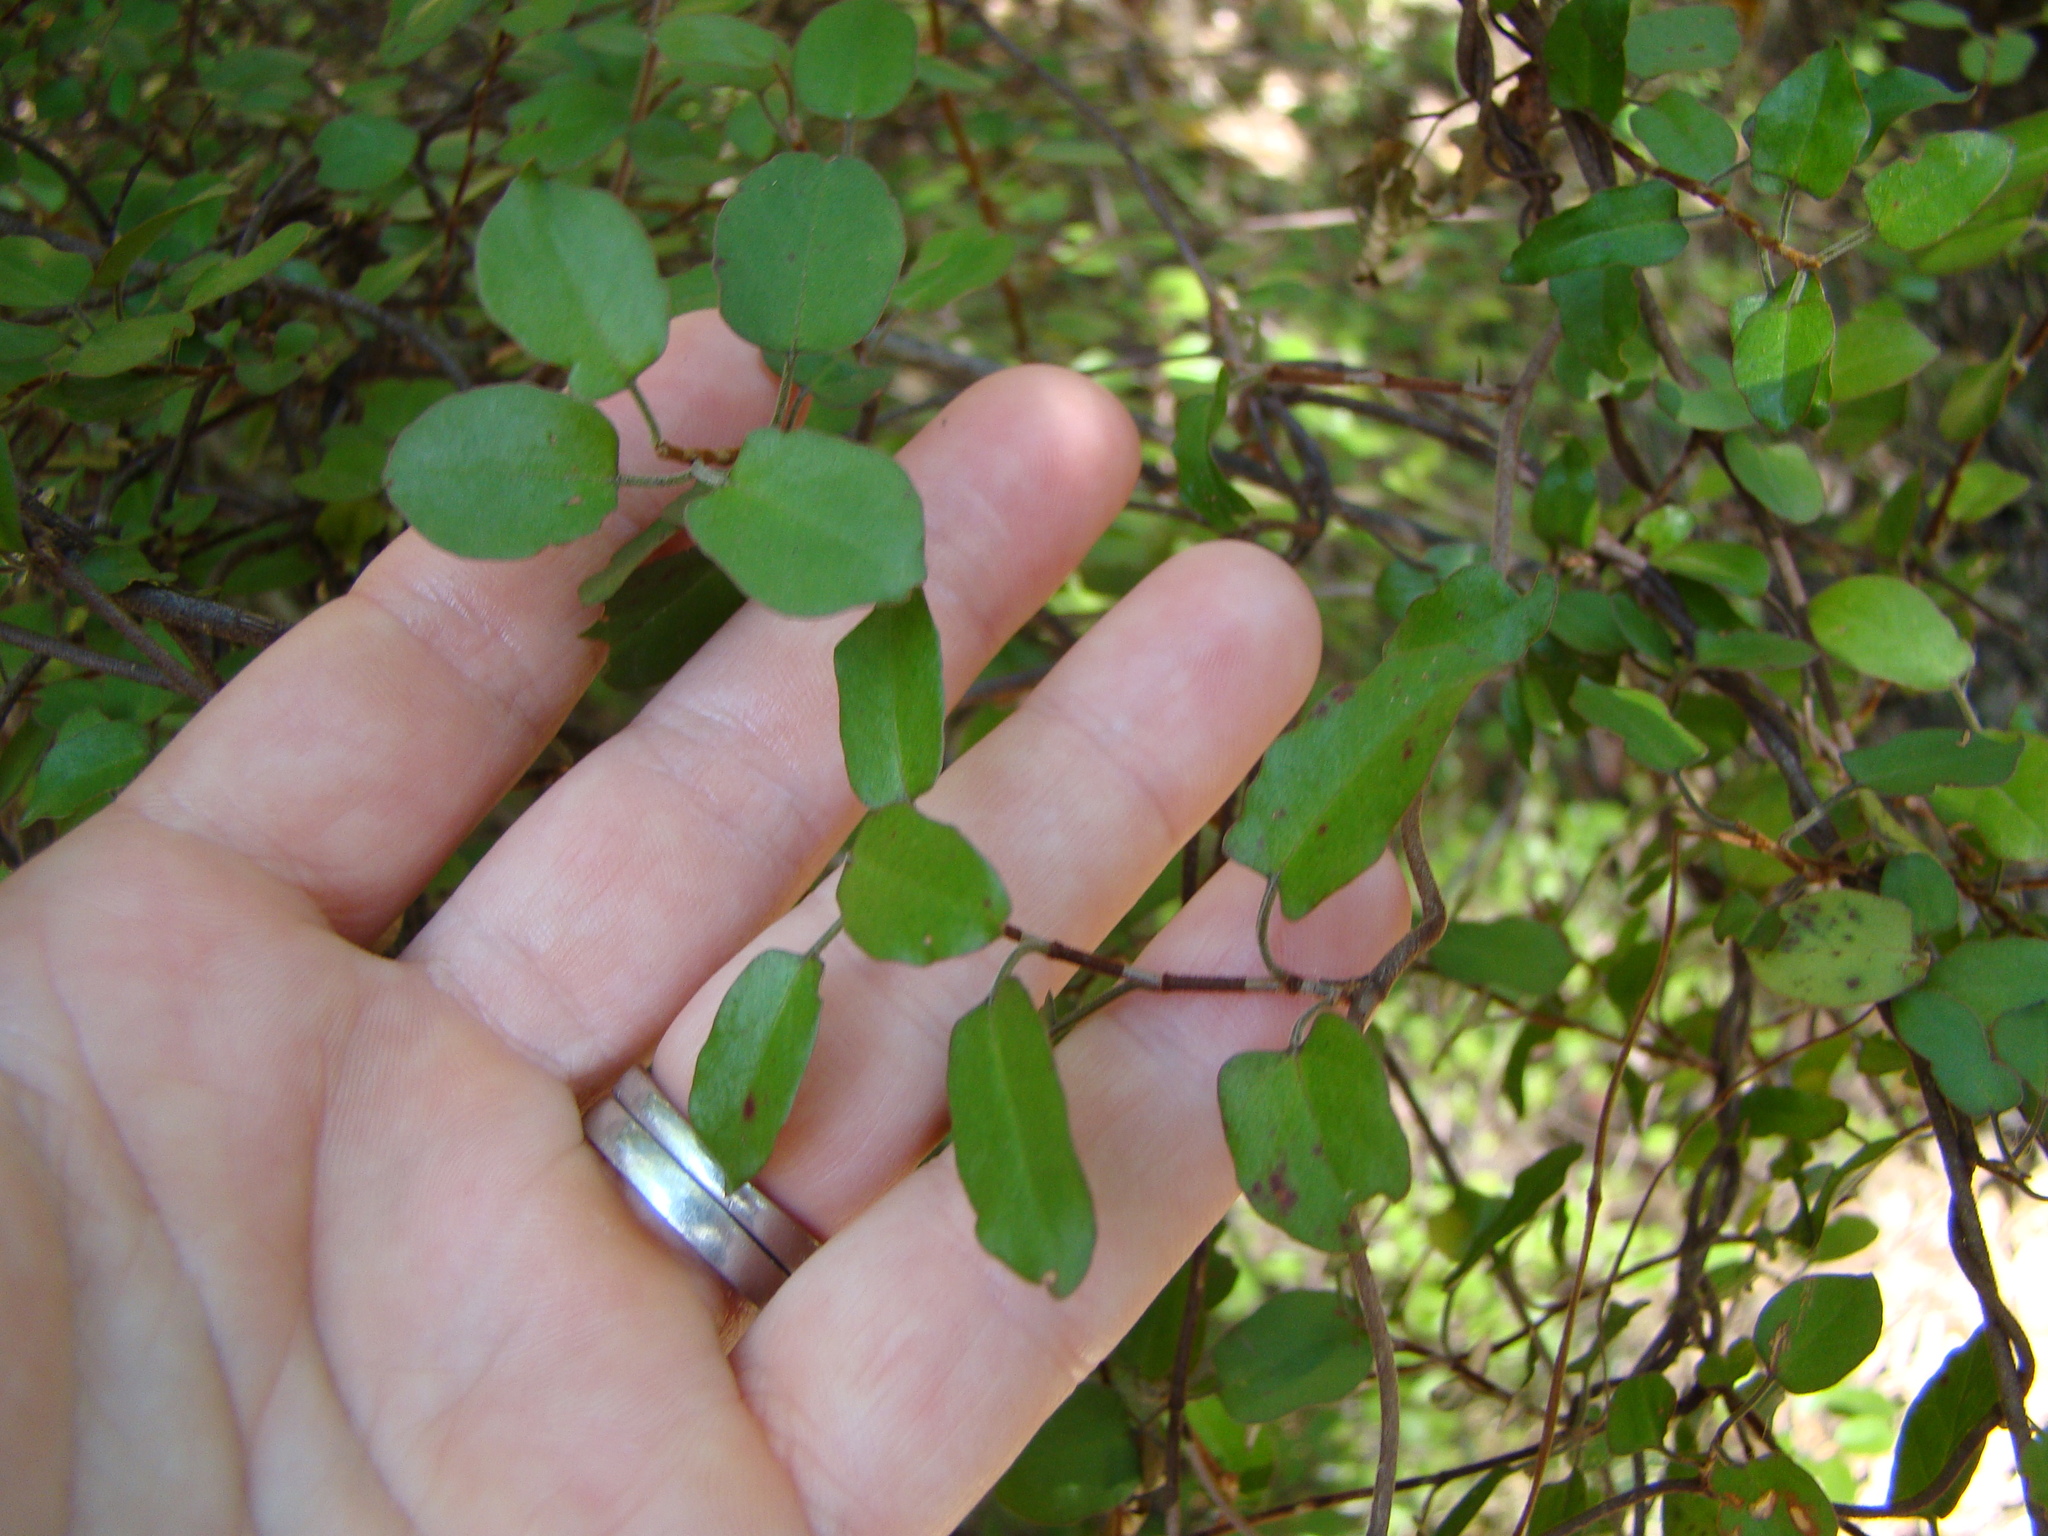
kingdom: Plantae
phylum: Tracheophyta
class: Magnoliopsida
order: Caryophyllales
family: Polygonaceae
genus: Muehlenbeckia
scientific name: Muehlenbeckia
